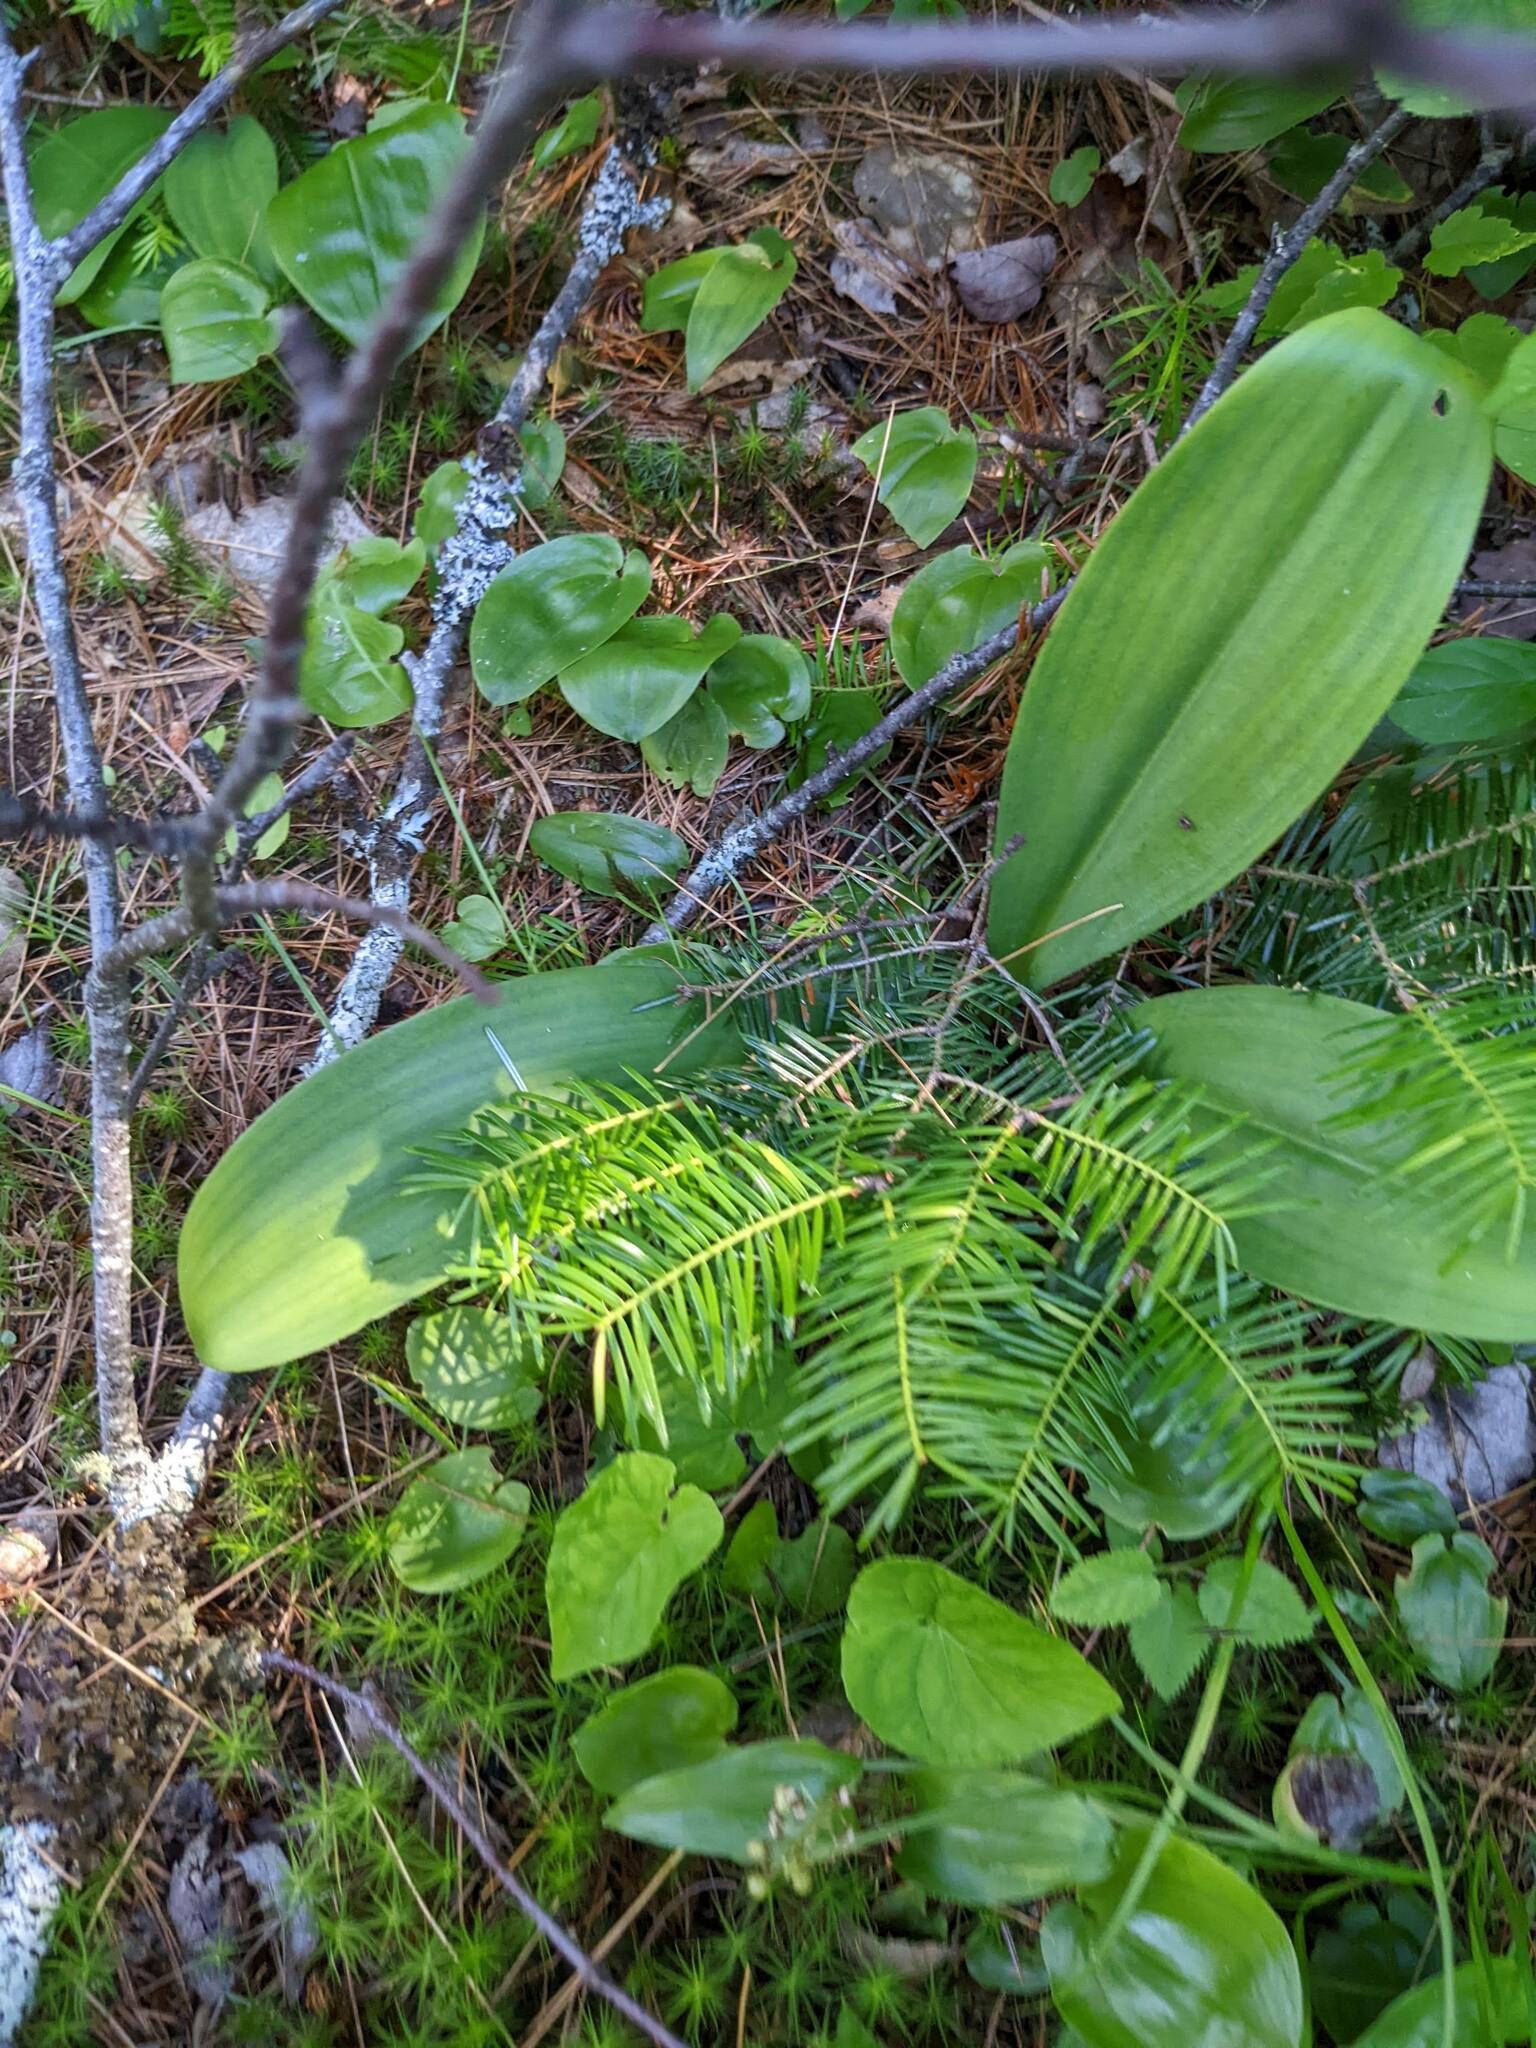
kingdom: Plantae
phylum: Tracheophyta
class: Liliopsida
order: Liliales
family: Liliaceae
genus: Clintonia
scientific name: Clintonia borealis
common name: Yellow clintonia
